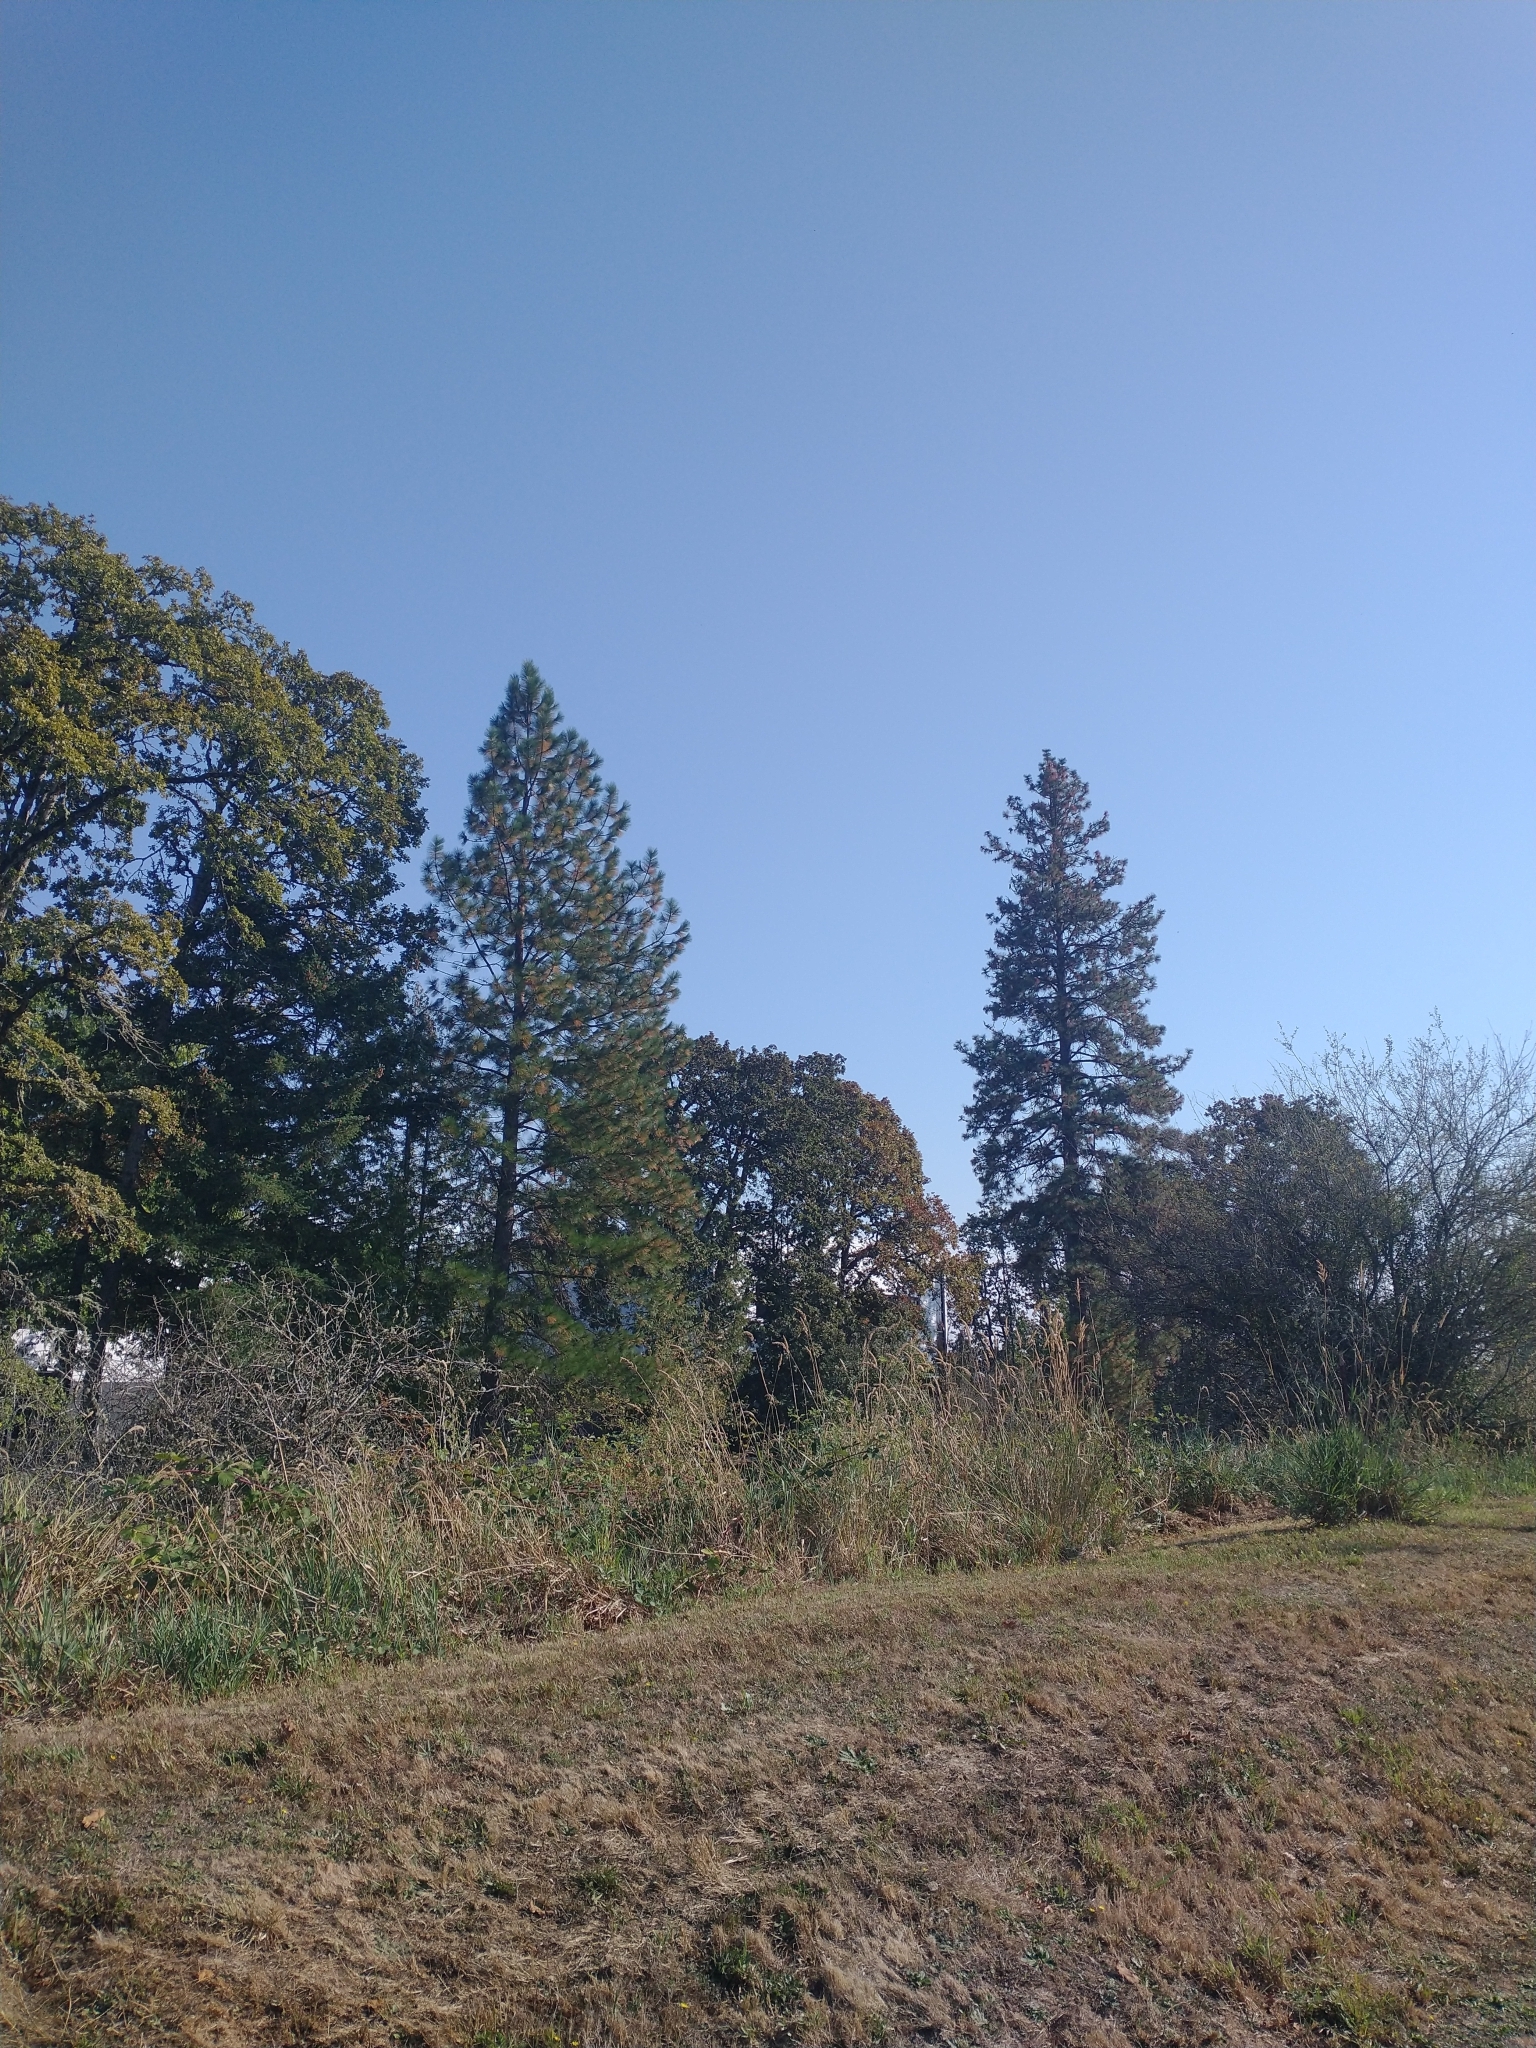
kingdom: Plantae
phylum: Tracheophyta
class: Pinopsida
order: Pinales
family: Pinaceae
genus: Pinus
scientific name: Pinus ponderosa
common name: Western yellow-pine
